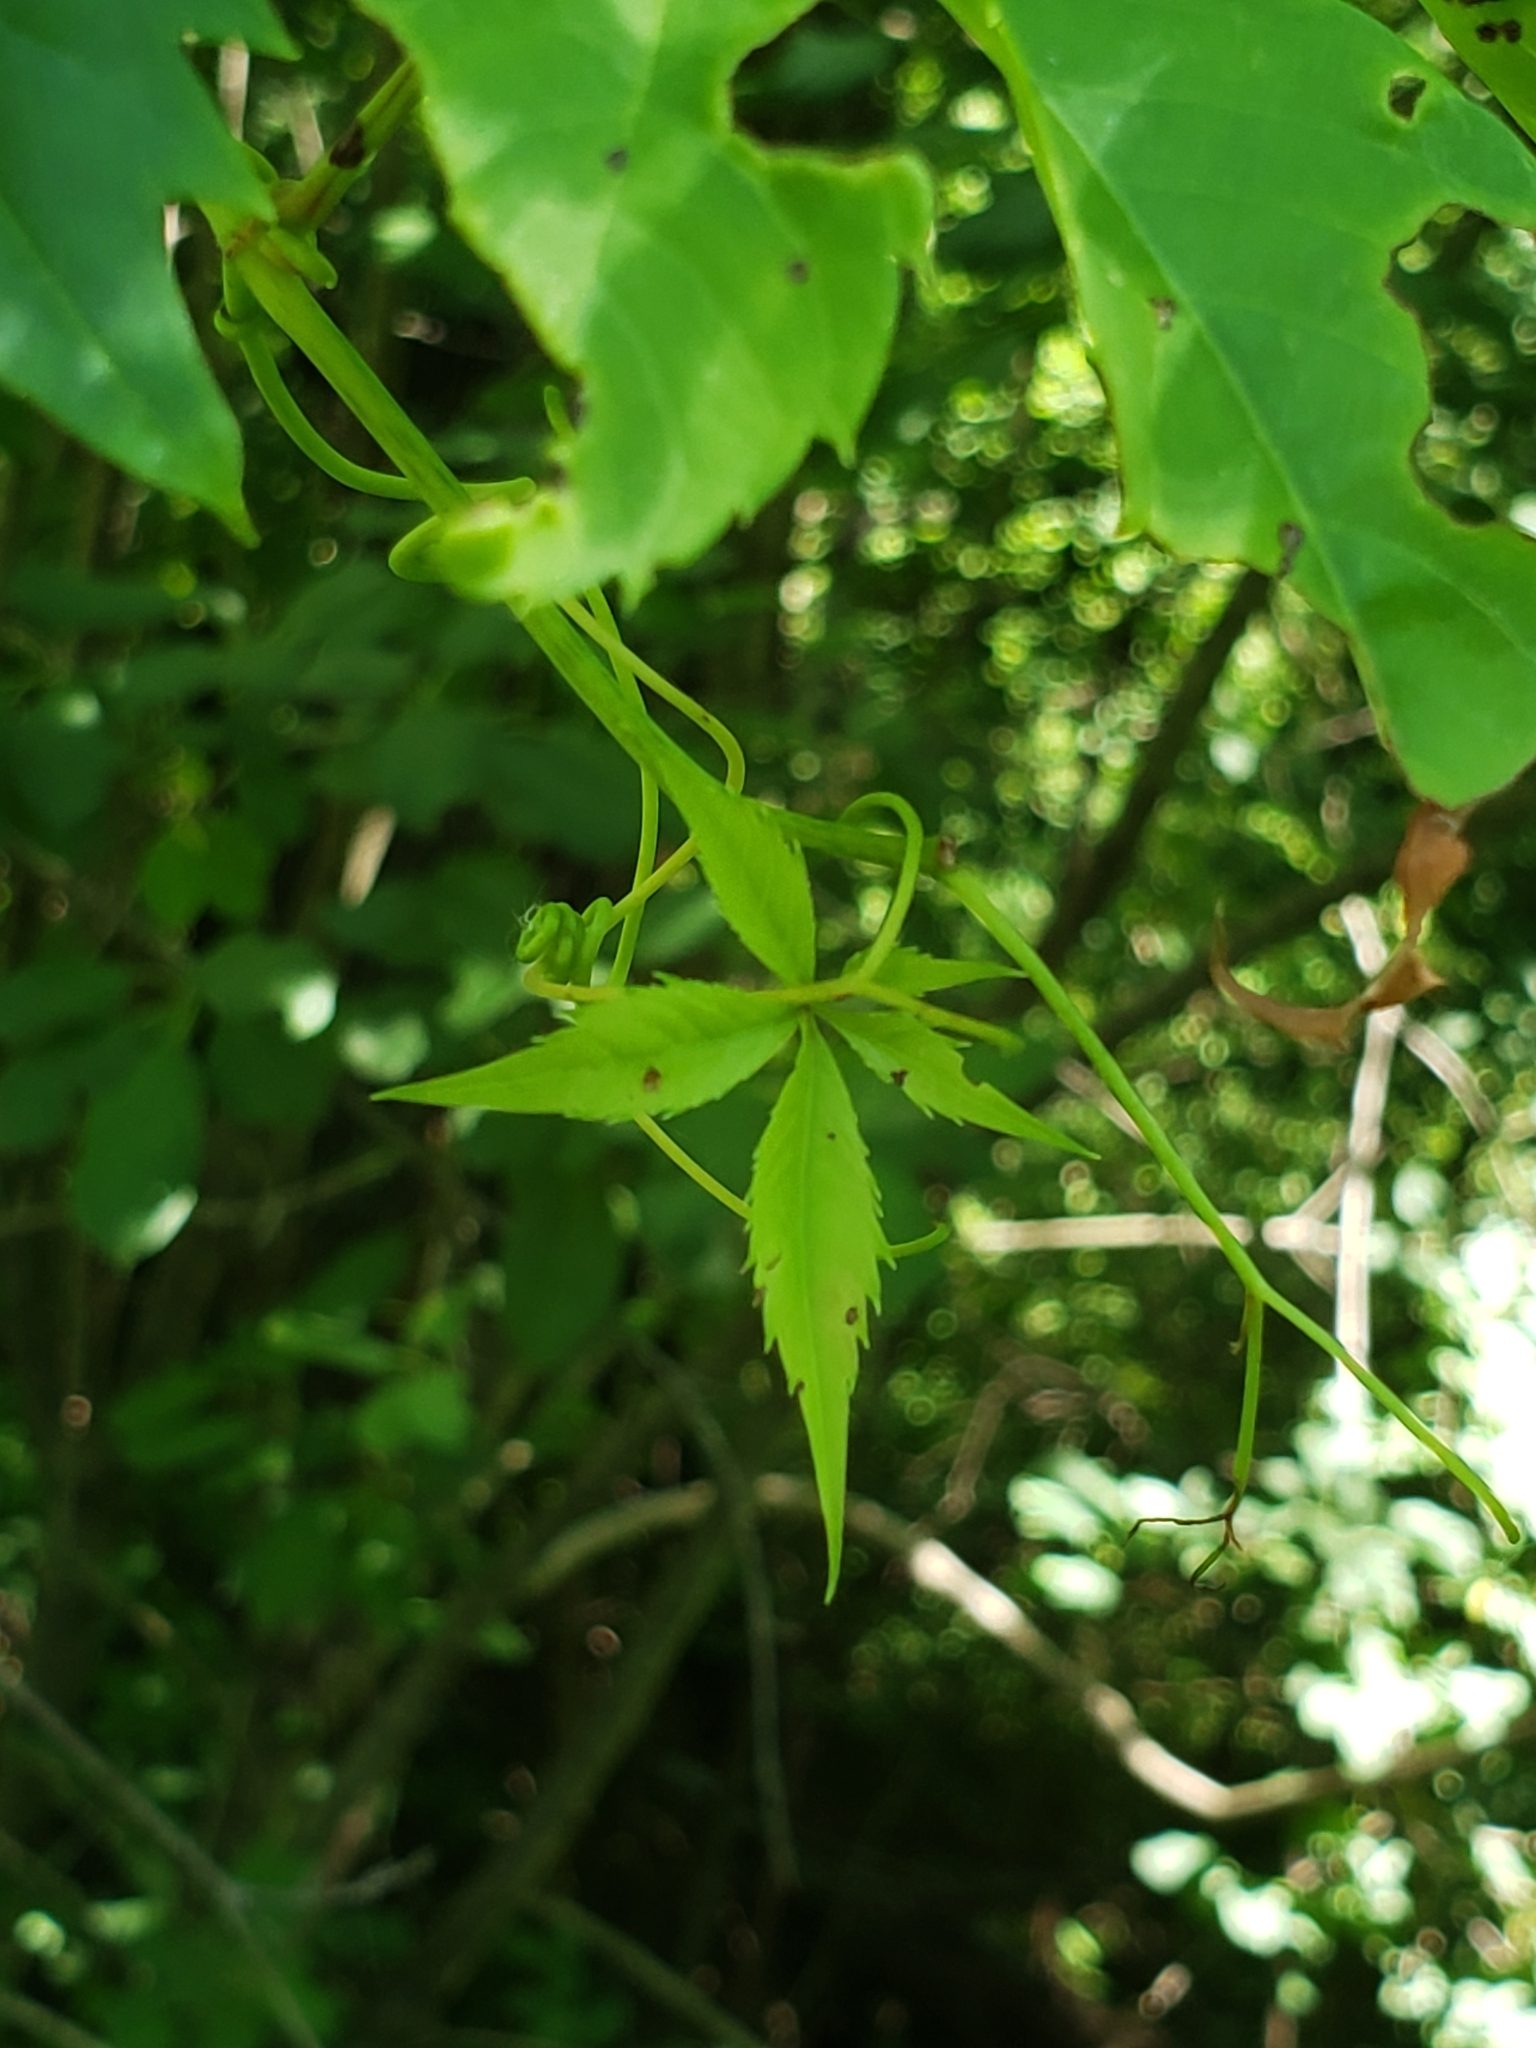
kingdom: Plantae
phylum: Tracheophyta
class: Magnoliopsida
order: Vitales
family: Vitaceae
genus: Parthenocissus
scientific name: Parthenocissus quinquefolia
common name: Virginia-creeper
